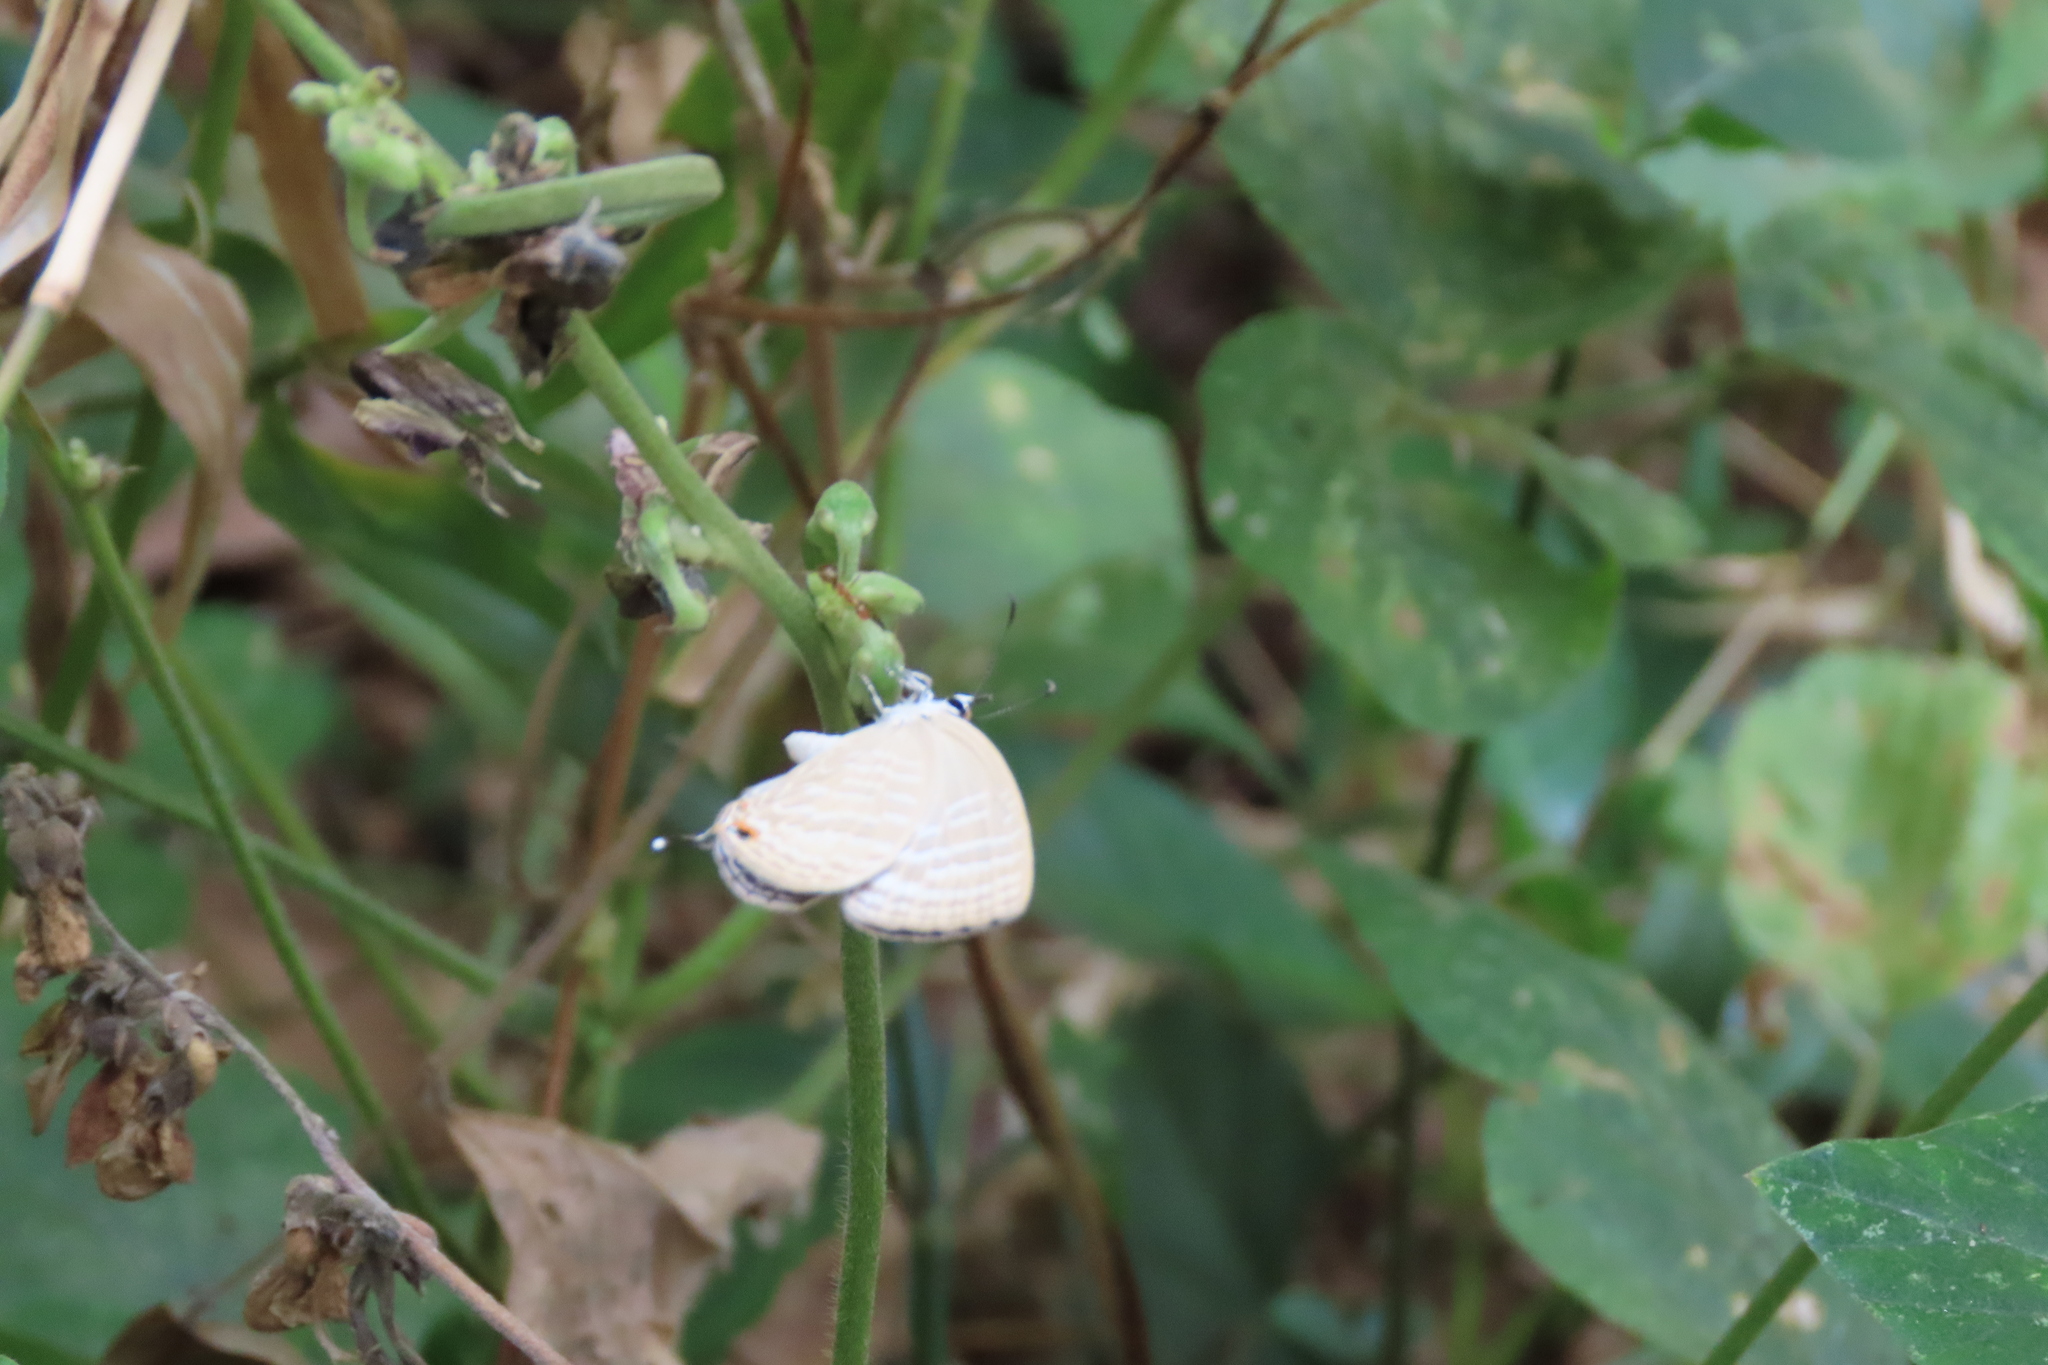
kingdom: Animalia
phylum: Arthropoda
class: Insecta
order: Lepidoptera
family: Lycaenidae
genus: Jamides
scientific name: Jamides celeno
